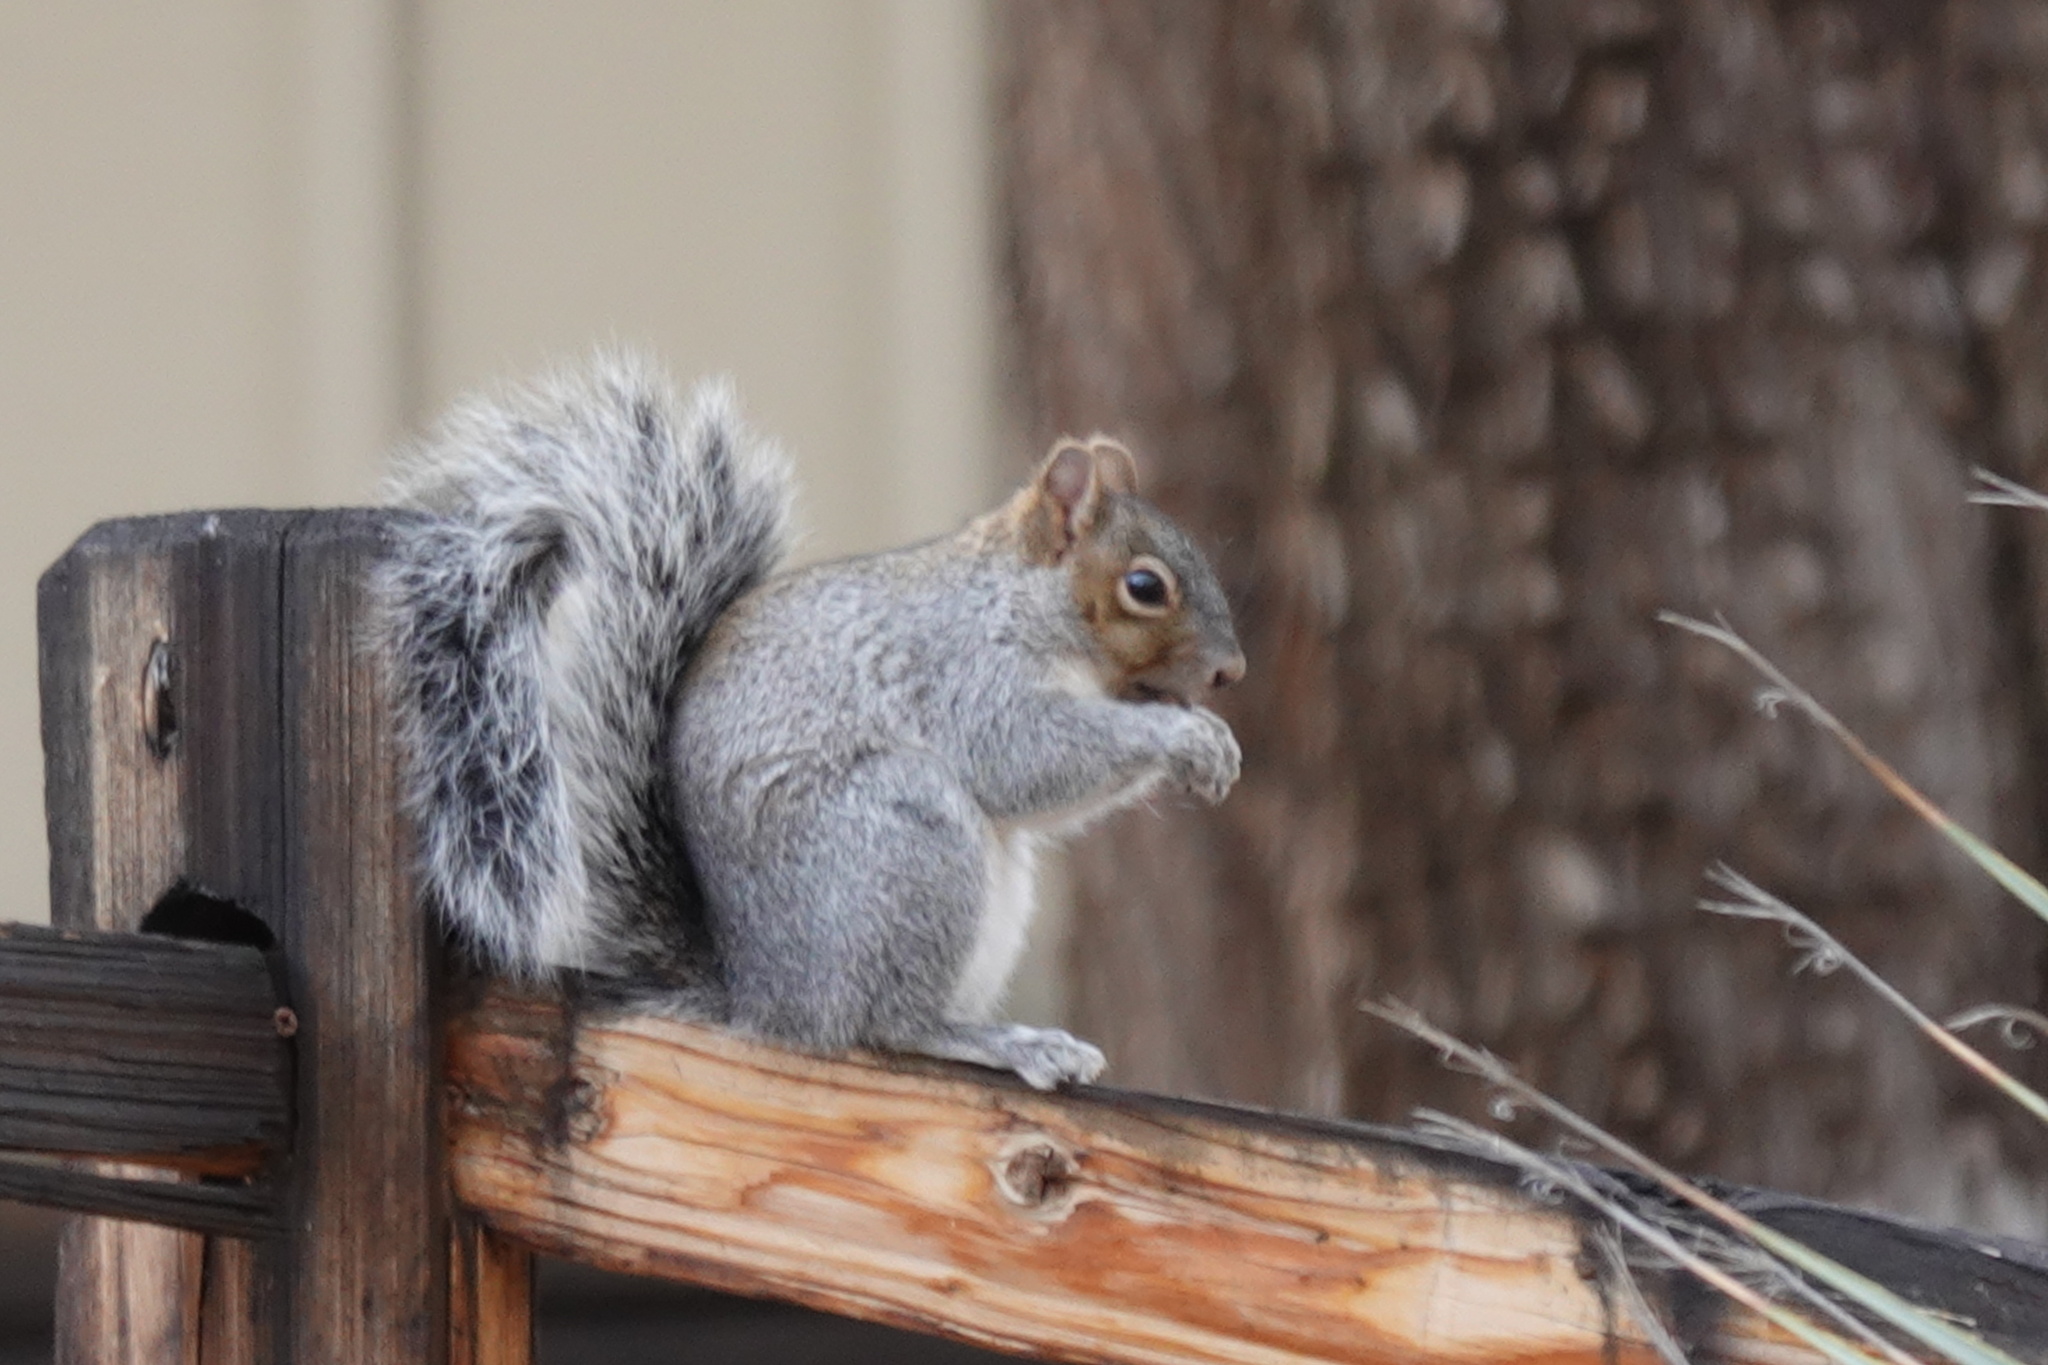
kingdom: Animalia
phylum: Chordata
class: Mammalia
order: Rodentia
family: Sciuridae
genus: Sciurus
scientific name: Sciurus arizonensis
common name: Arizona gray squirrel
